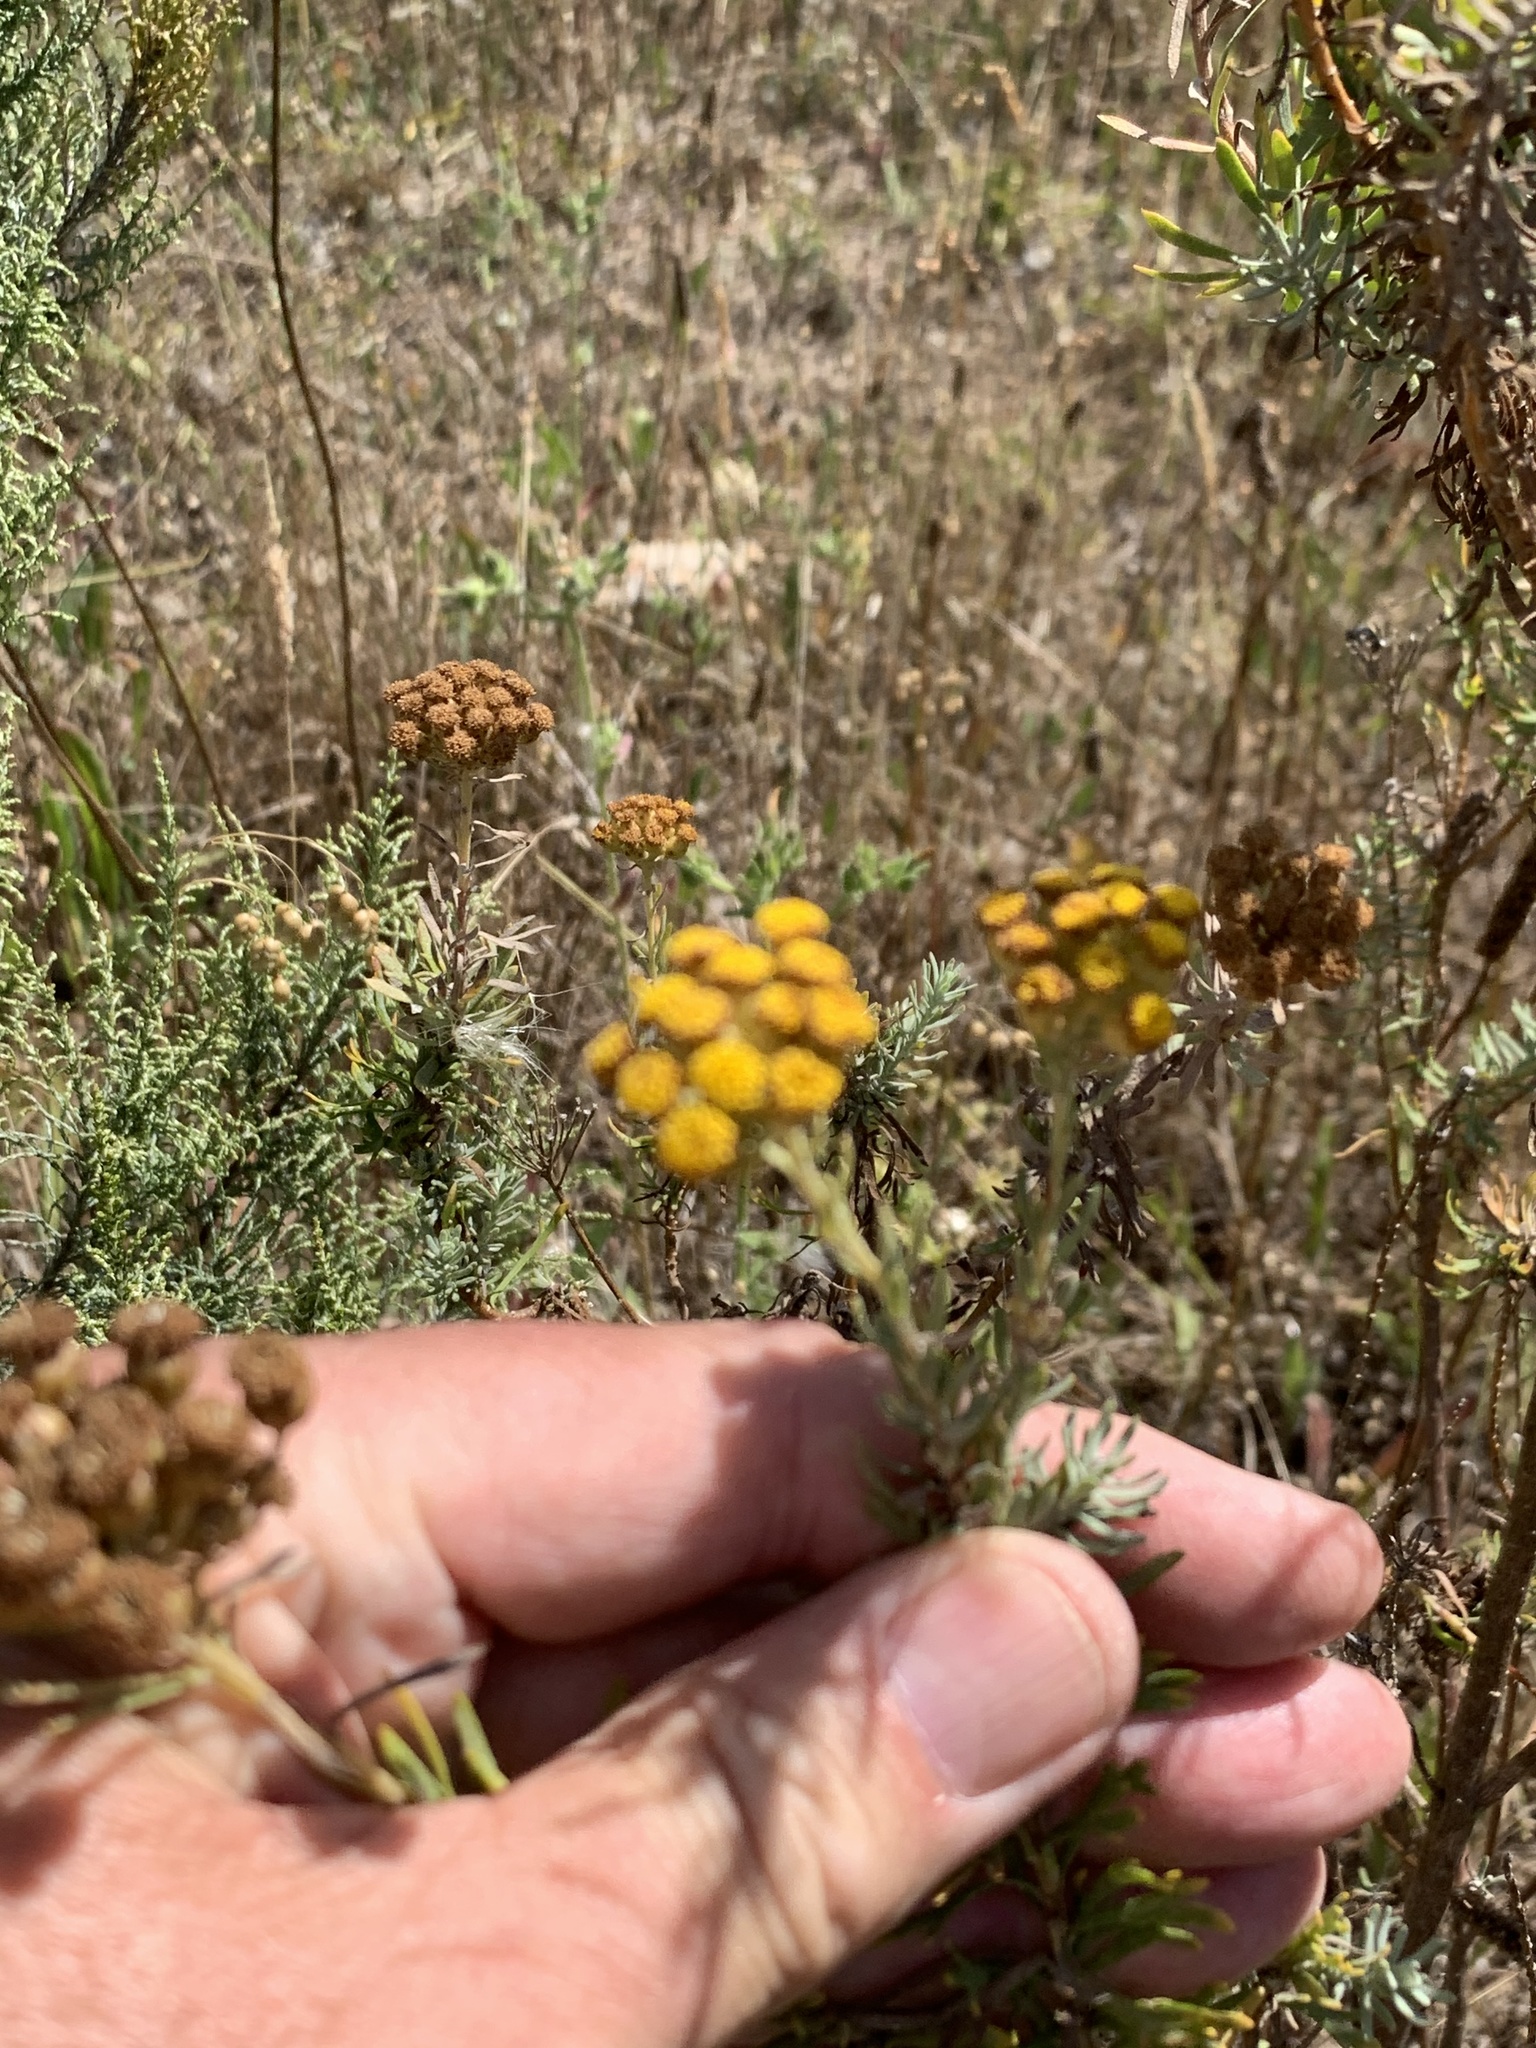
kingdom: Plantae
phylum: Tracheophyta
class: Magnoliopsida
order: Asterales
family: Asteraceae
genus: Athanasia
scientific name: Athanasia trifurcata
